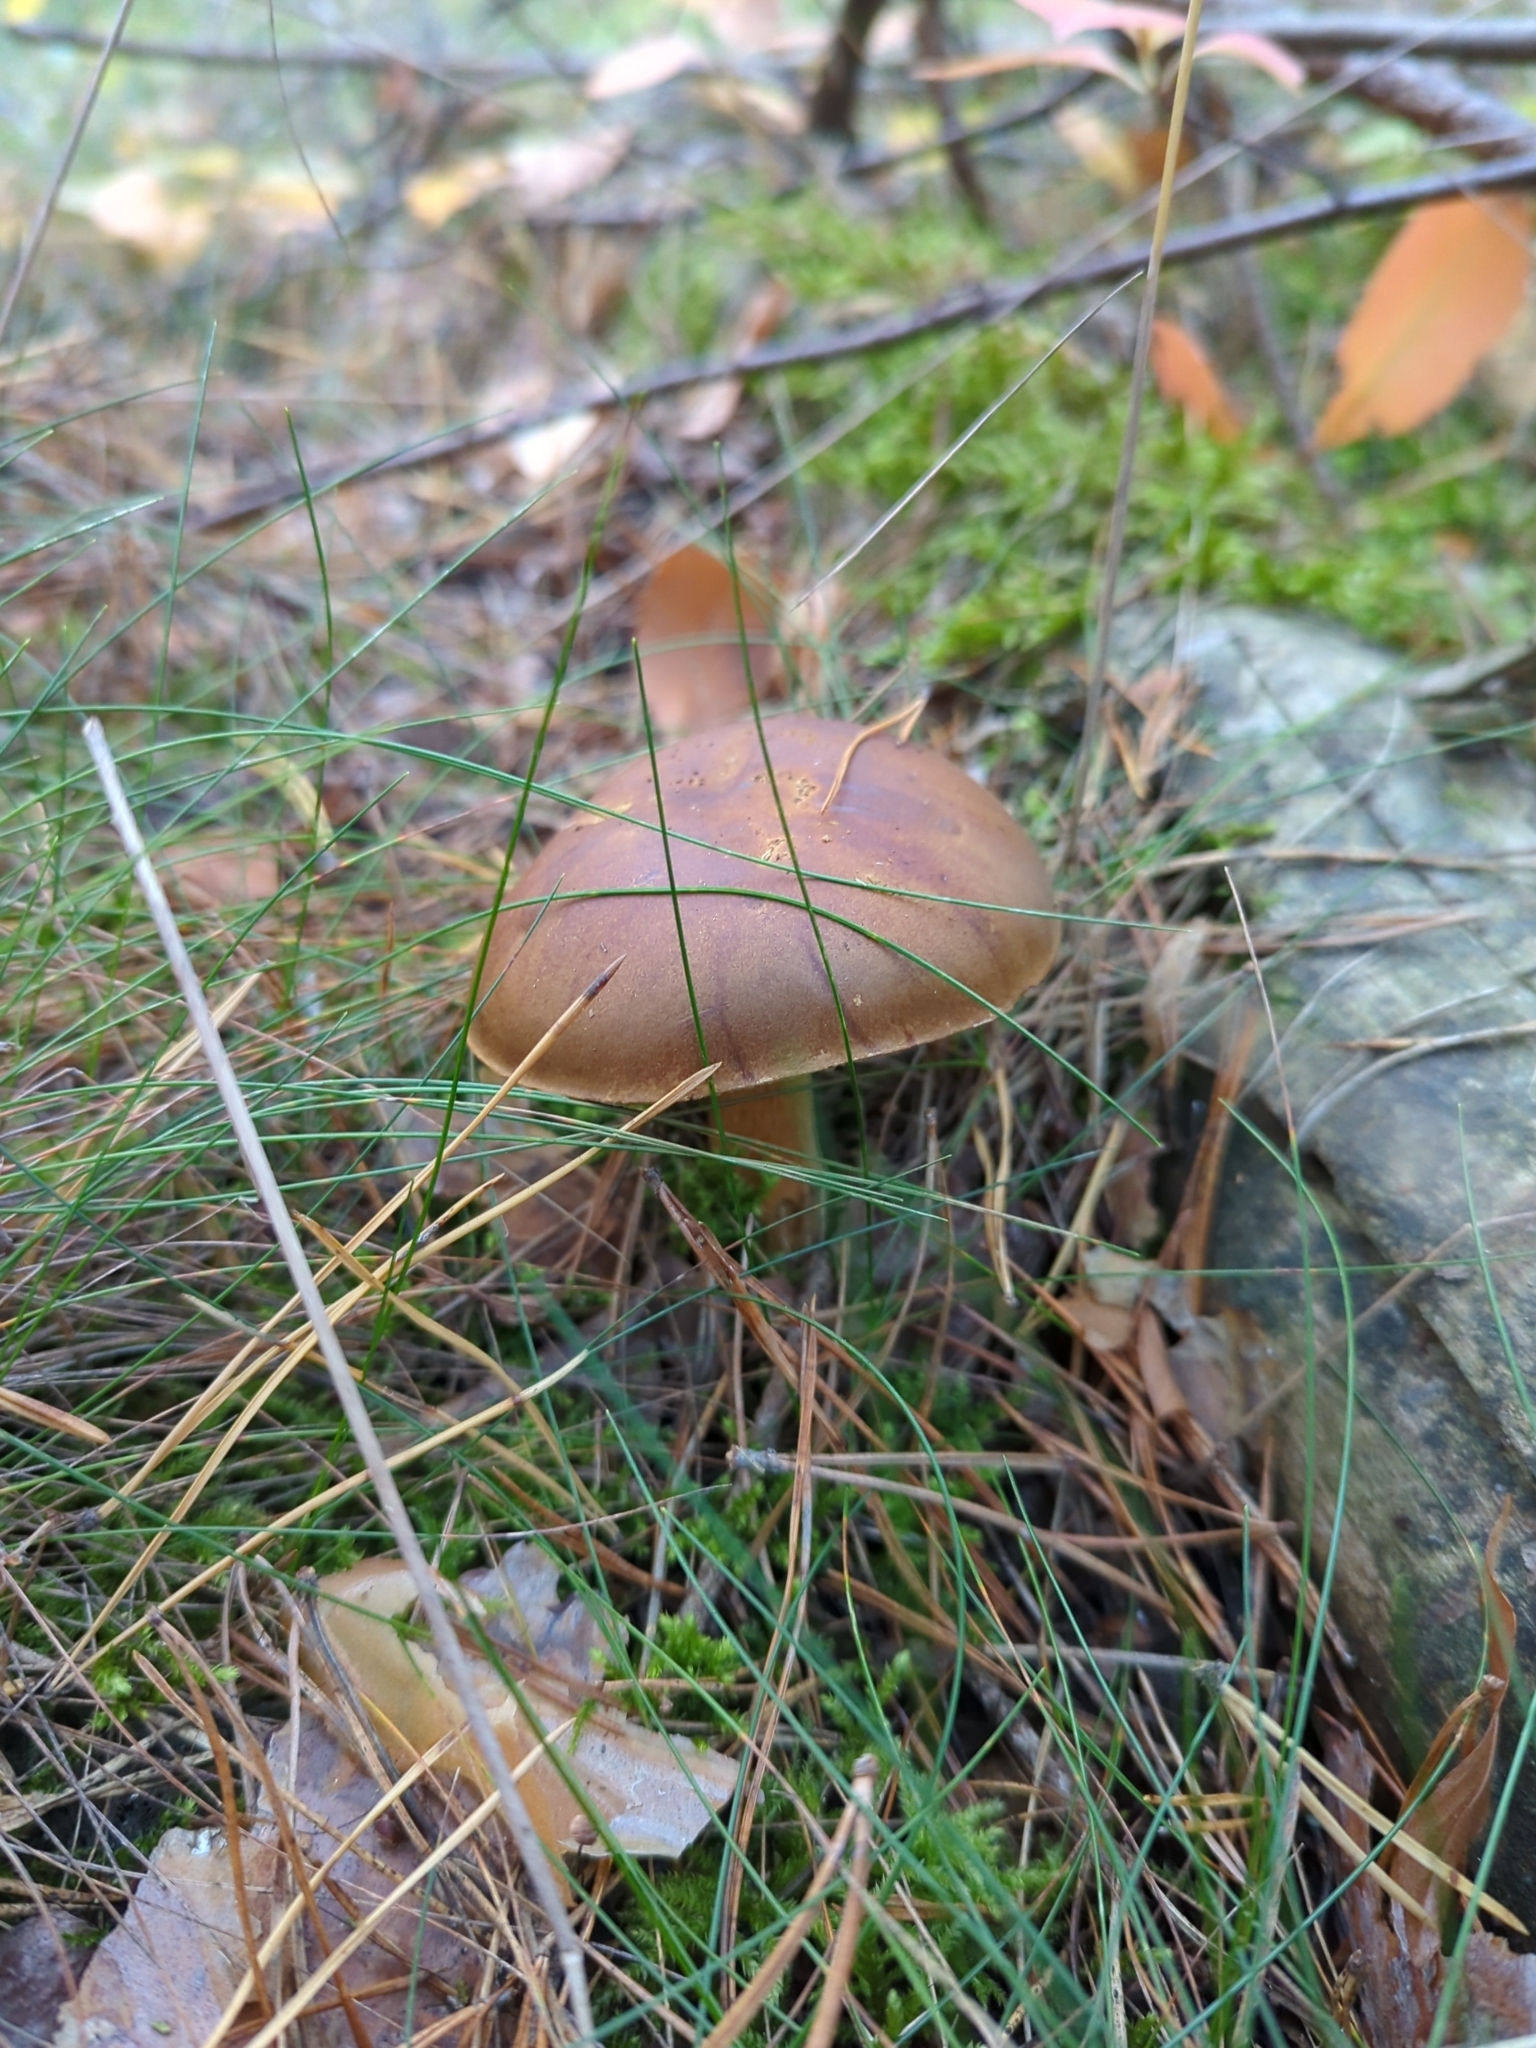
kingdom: Fungi
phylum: Basidiomycota
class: Agaricomycetes
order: Boletales
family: Boletaceae
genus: Imleria
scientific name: Imleria badia
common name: Bay bolete
